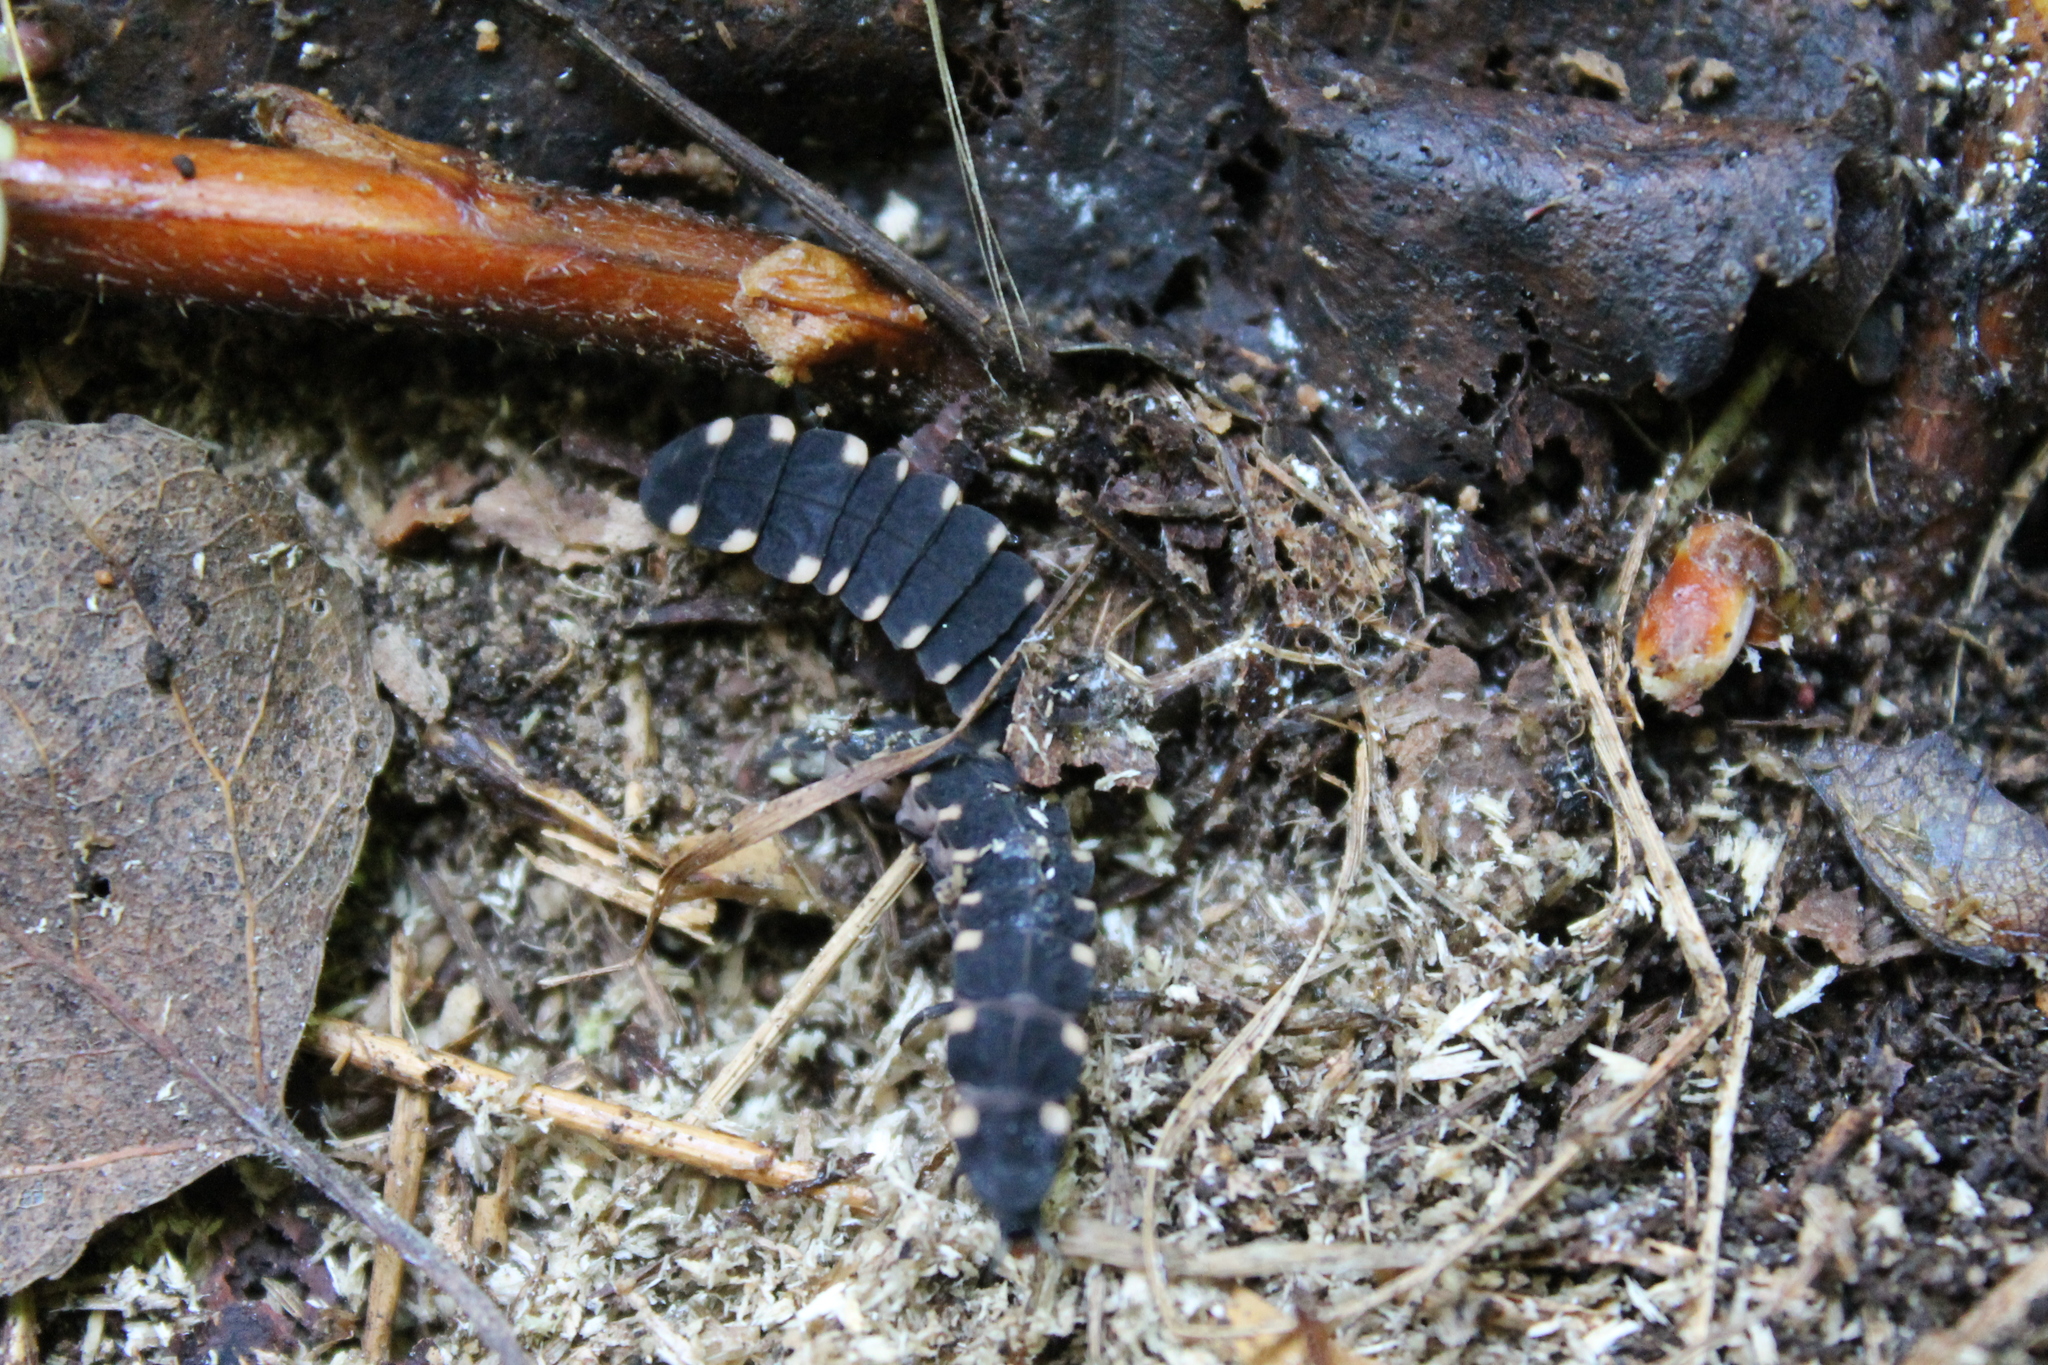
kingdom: Animalia
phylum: Arthropoda
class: Insecta
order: Coleoptera
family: Lampyridae
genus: Lampyris
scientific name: Lampyris noctiluca
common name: Glow-worm
